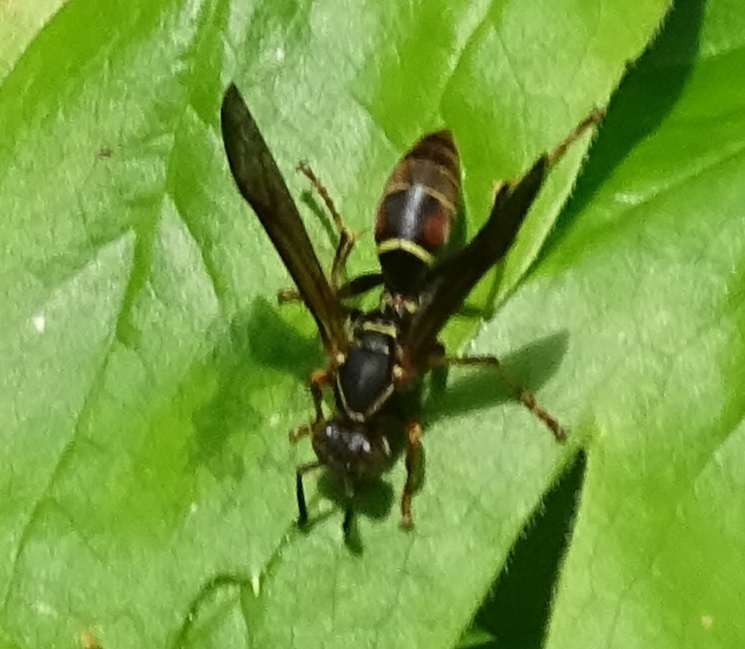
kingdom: Animalia
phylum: Arthropoda
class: Insecta
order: Hymenoptera
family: Eumenidae
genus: Polistes
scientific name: Polistes fuscatus
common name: Dark paper wasp
